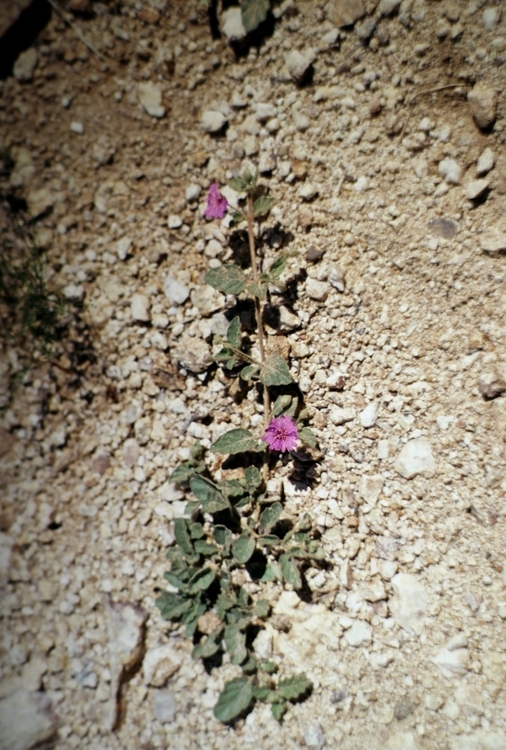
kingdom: Plantae
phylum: Tracheophyta
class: Magnoliopsida
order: Caryophyllales
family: Nyctaginaceae
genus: Allionia
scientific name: Allionia incarnata
